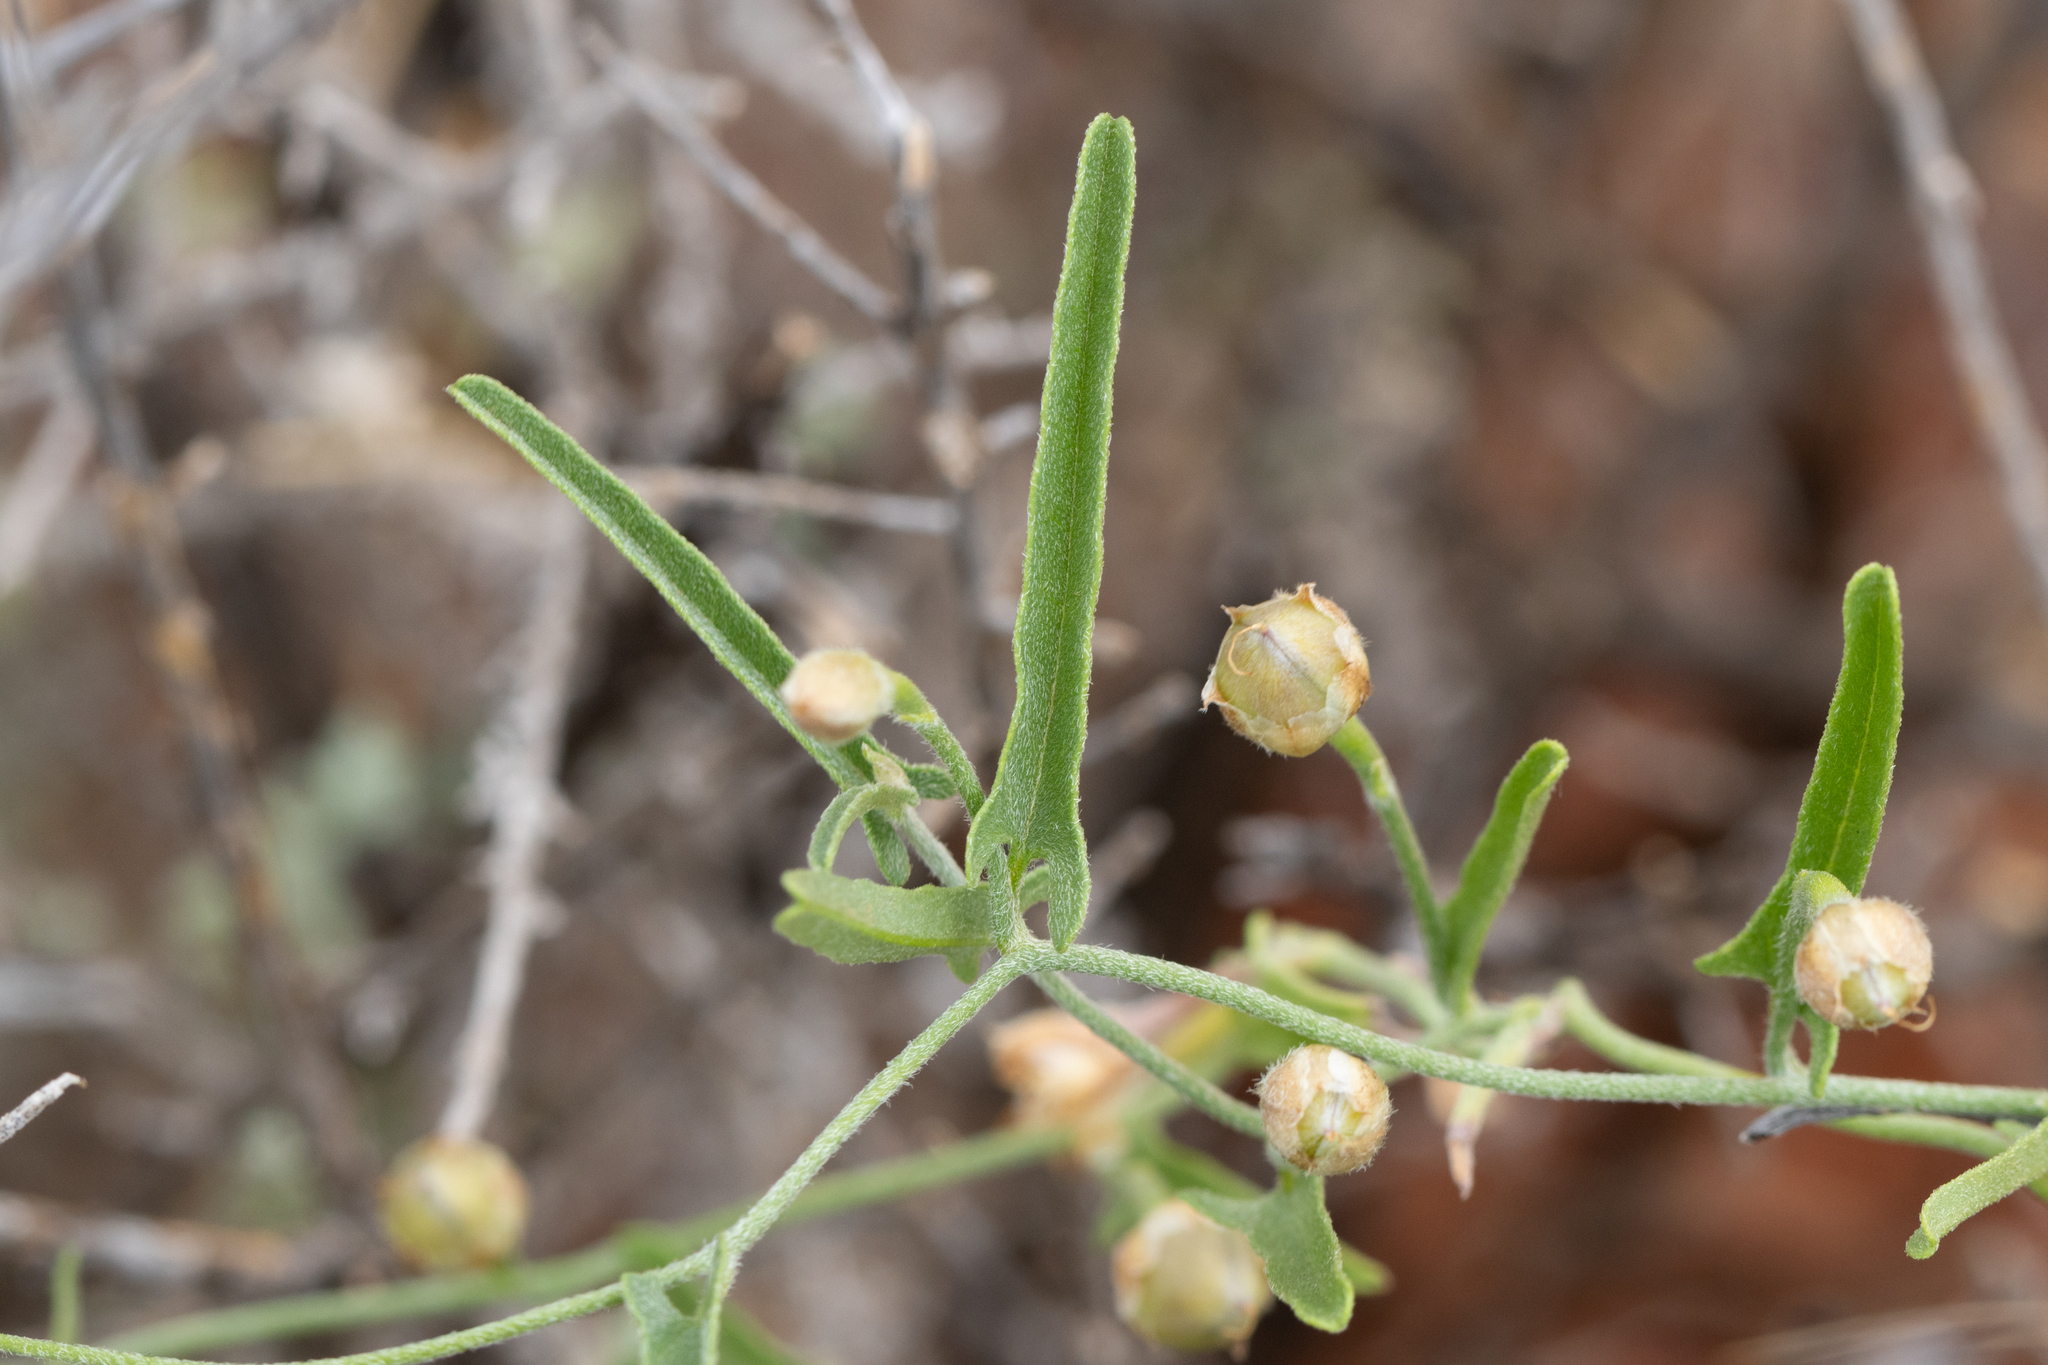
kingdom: Plantae
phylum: Tracheophyta
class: Magnoliopsida
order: Solanales
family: Convolvulaceae
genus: Convolvulus
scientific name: Convolvulus remotus
